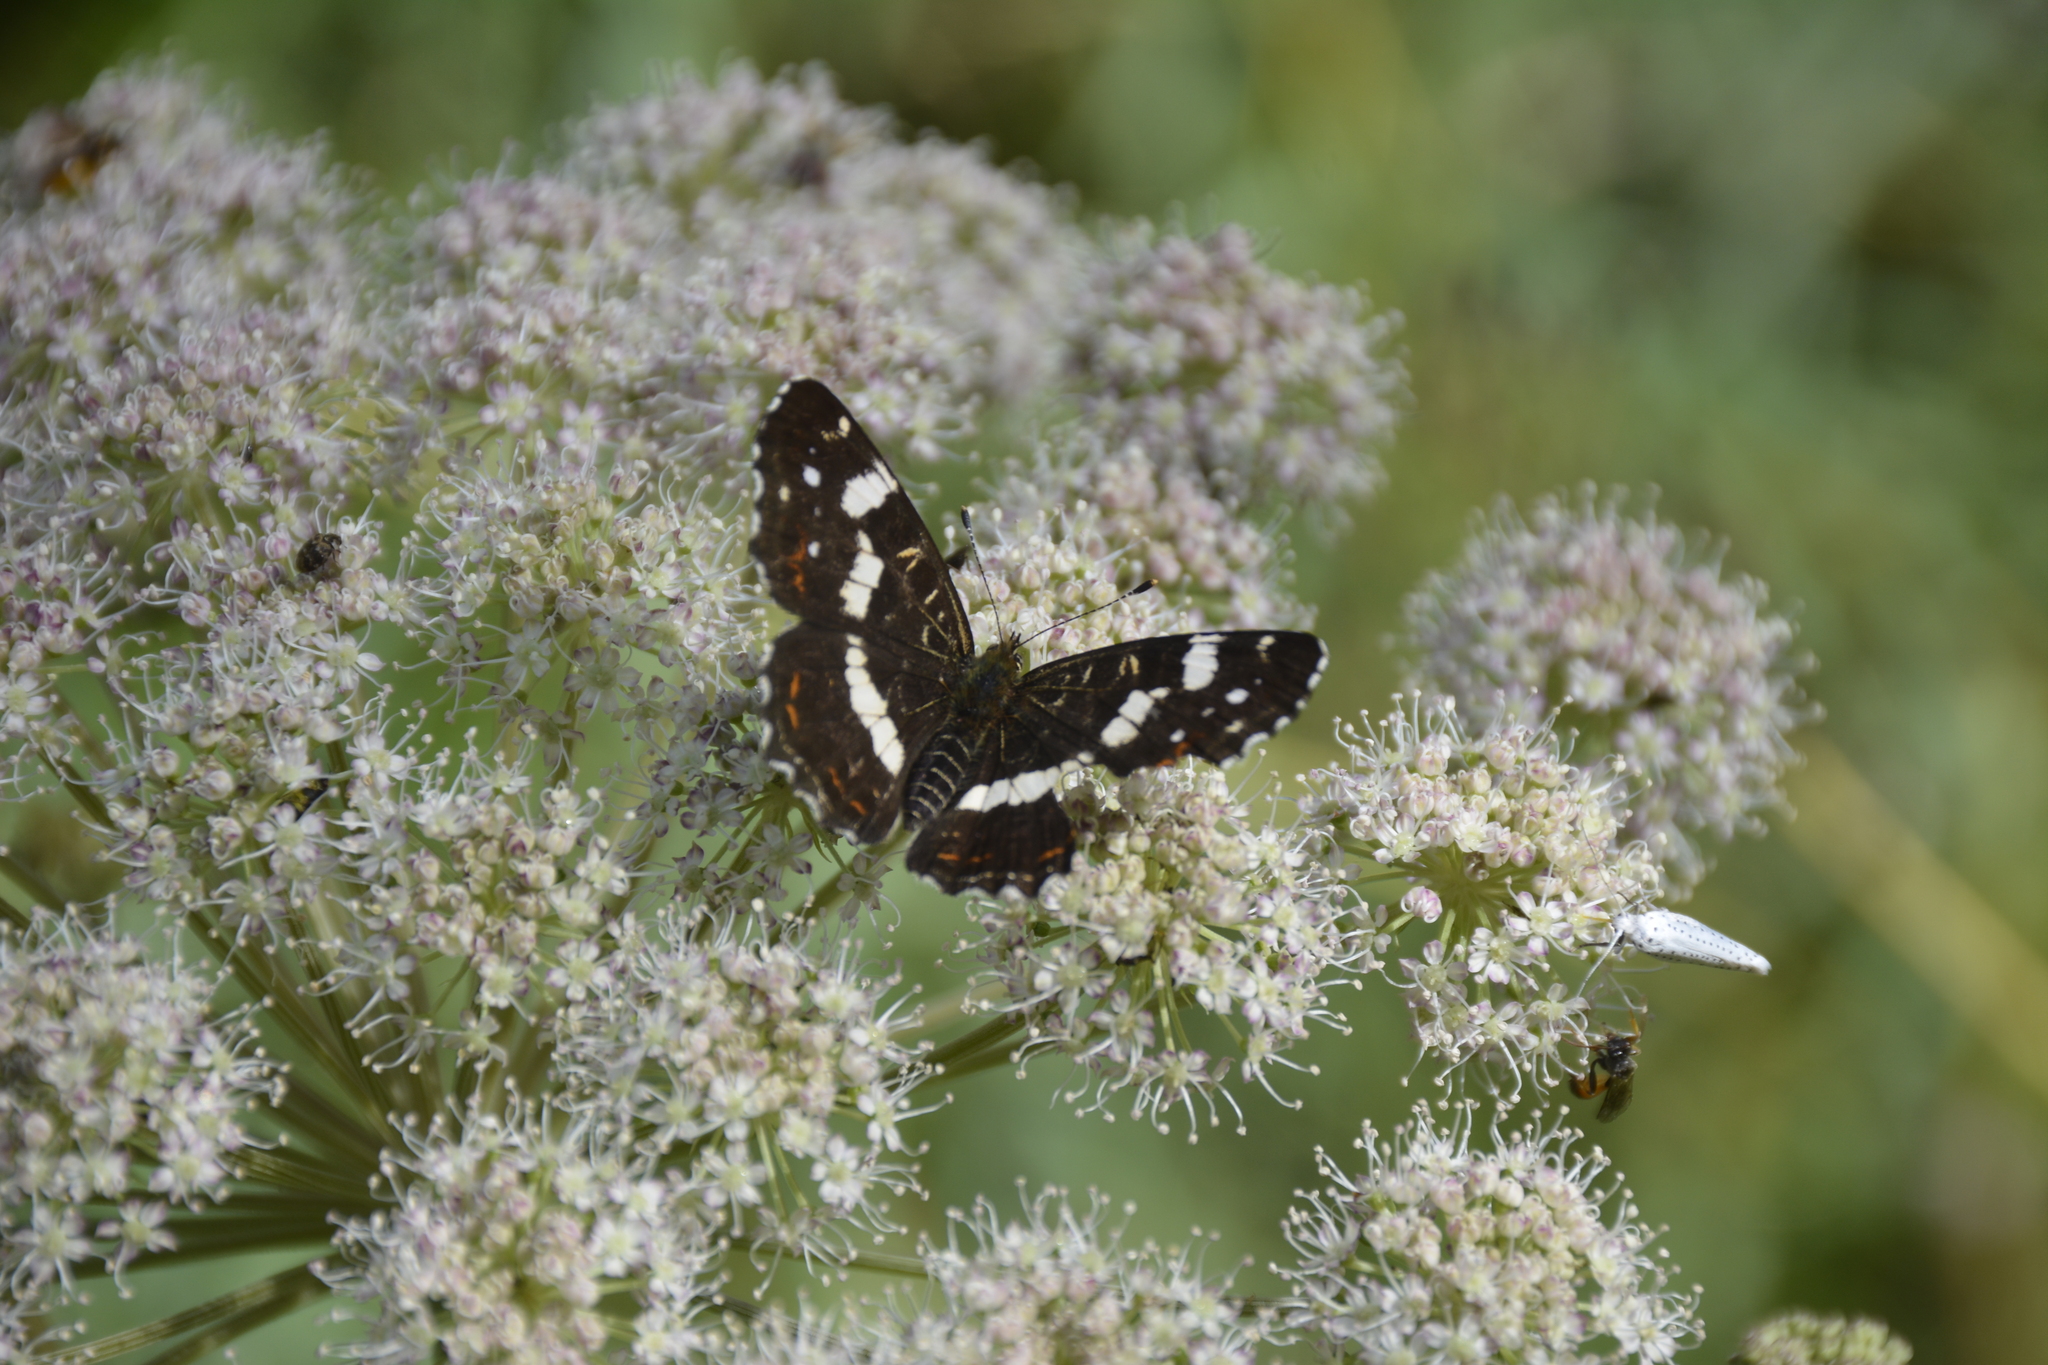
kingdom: Animalia
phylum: Arthropoda
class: Insecta
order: Lepidoptera
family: Nymphalidae
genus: Araschnia
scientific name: Araschnia levana
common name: Map butterfly
